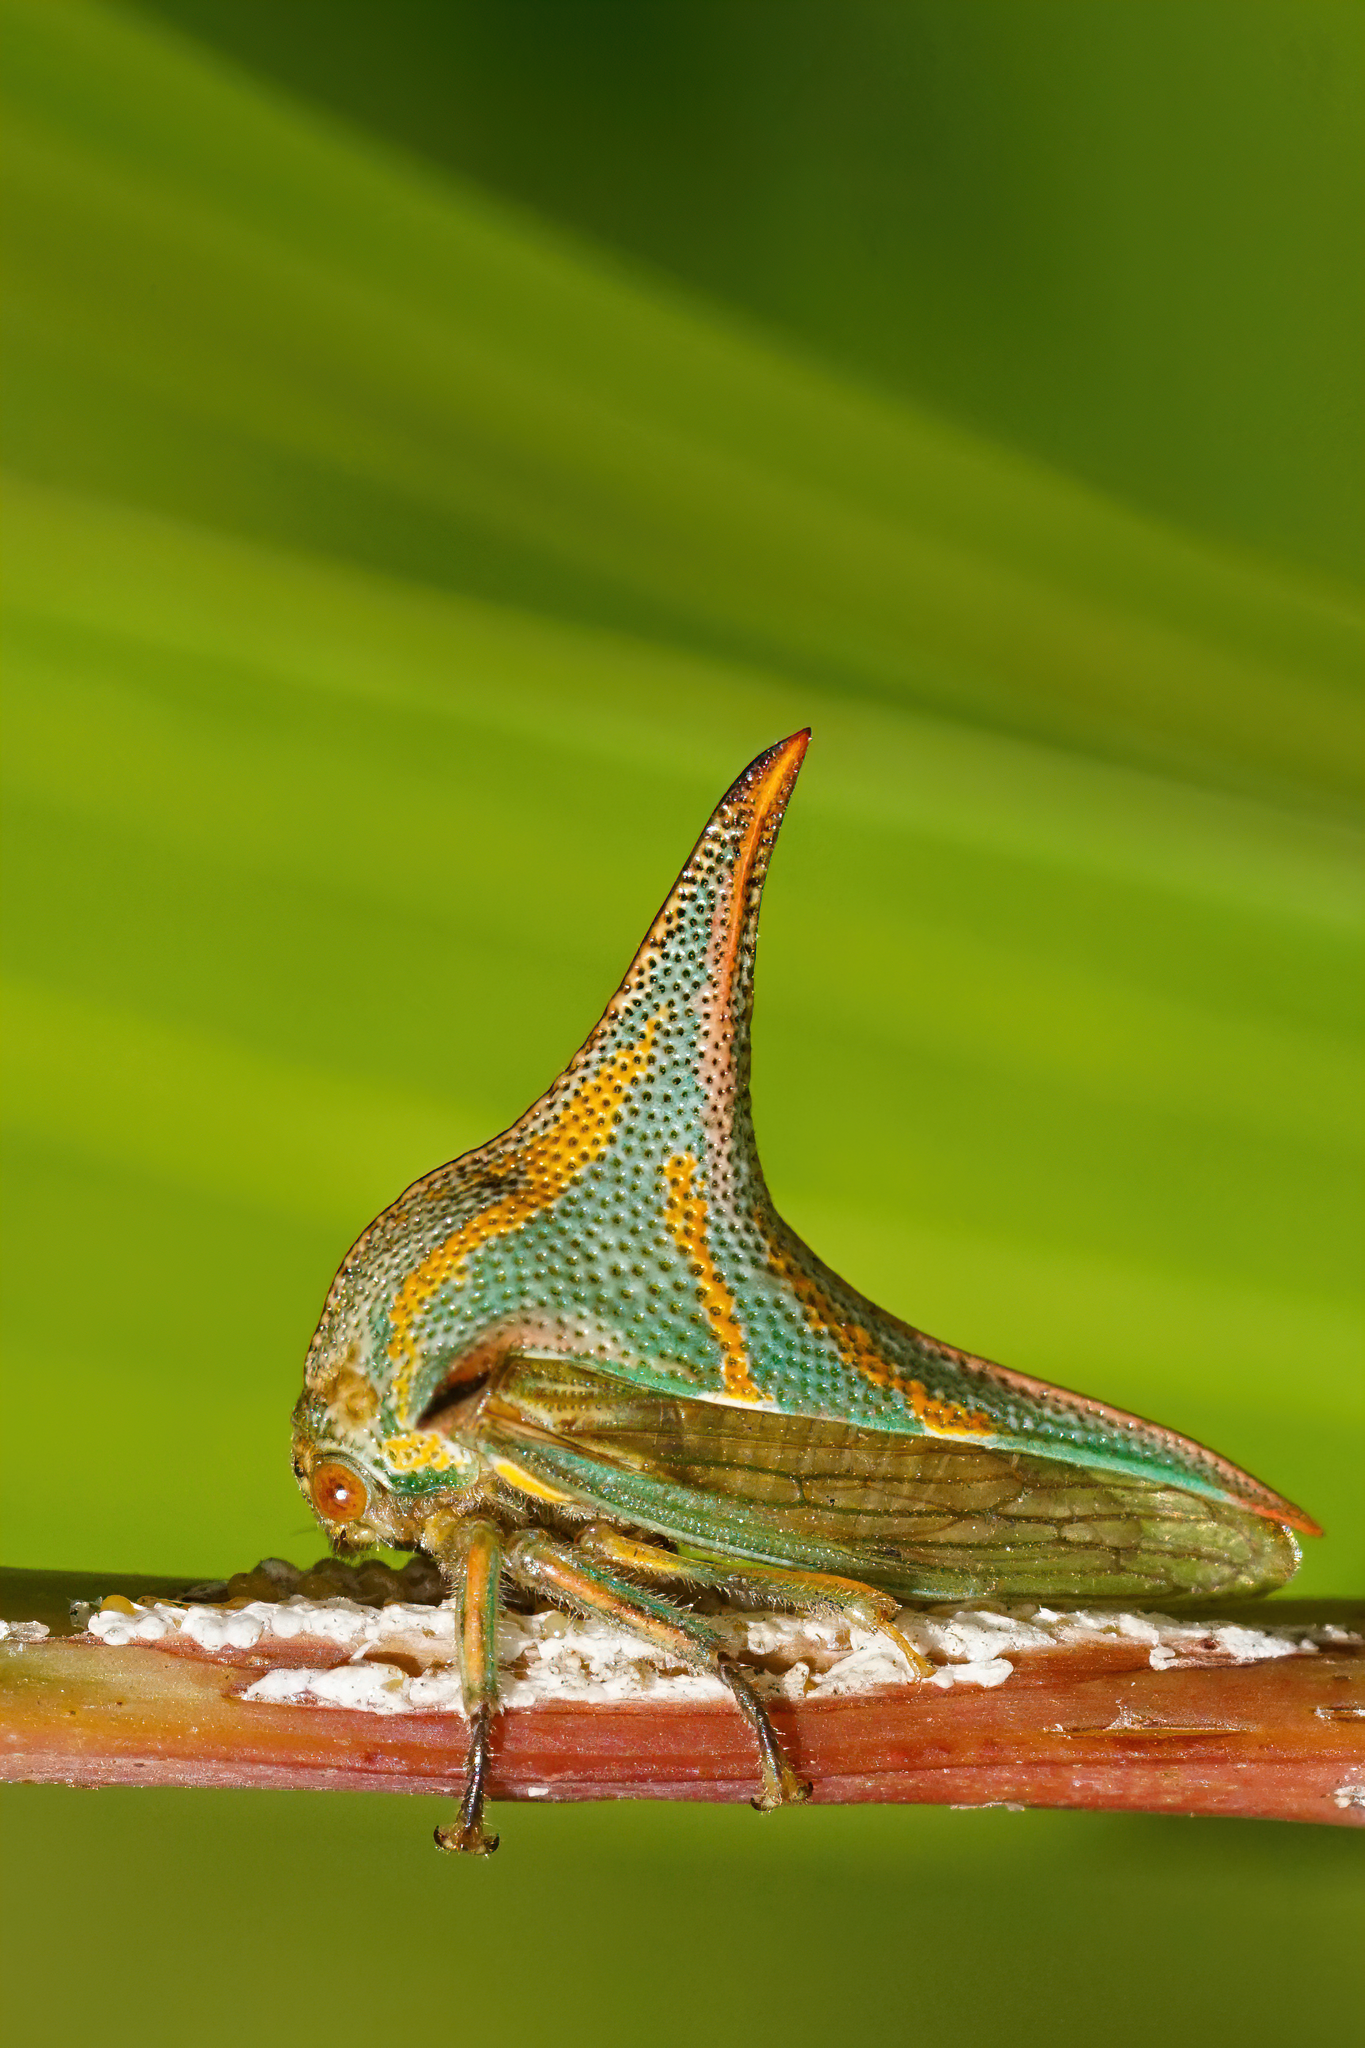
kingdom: Animalia
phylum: Arthropoda
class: Insecta
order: Hemiptera
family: Membracidae
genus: Umbonia
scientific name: Umbonia crassicornis
